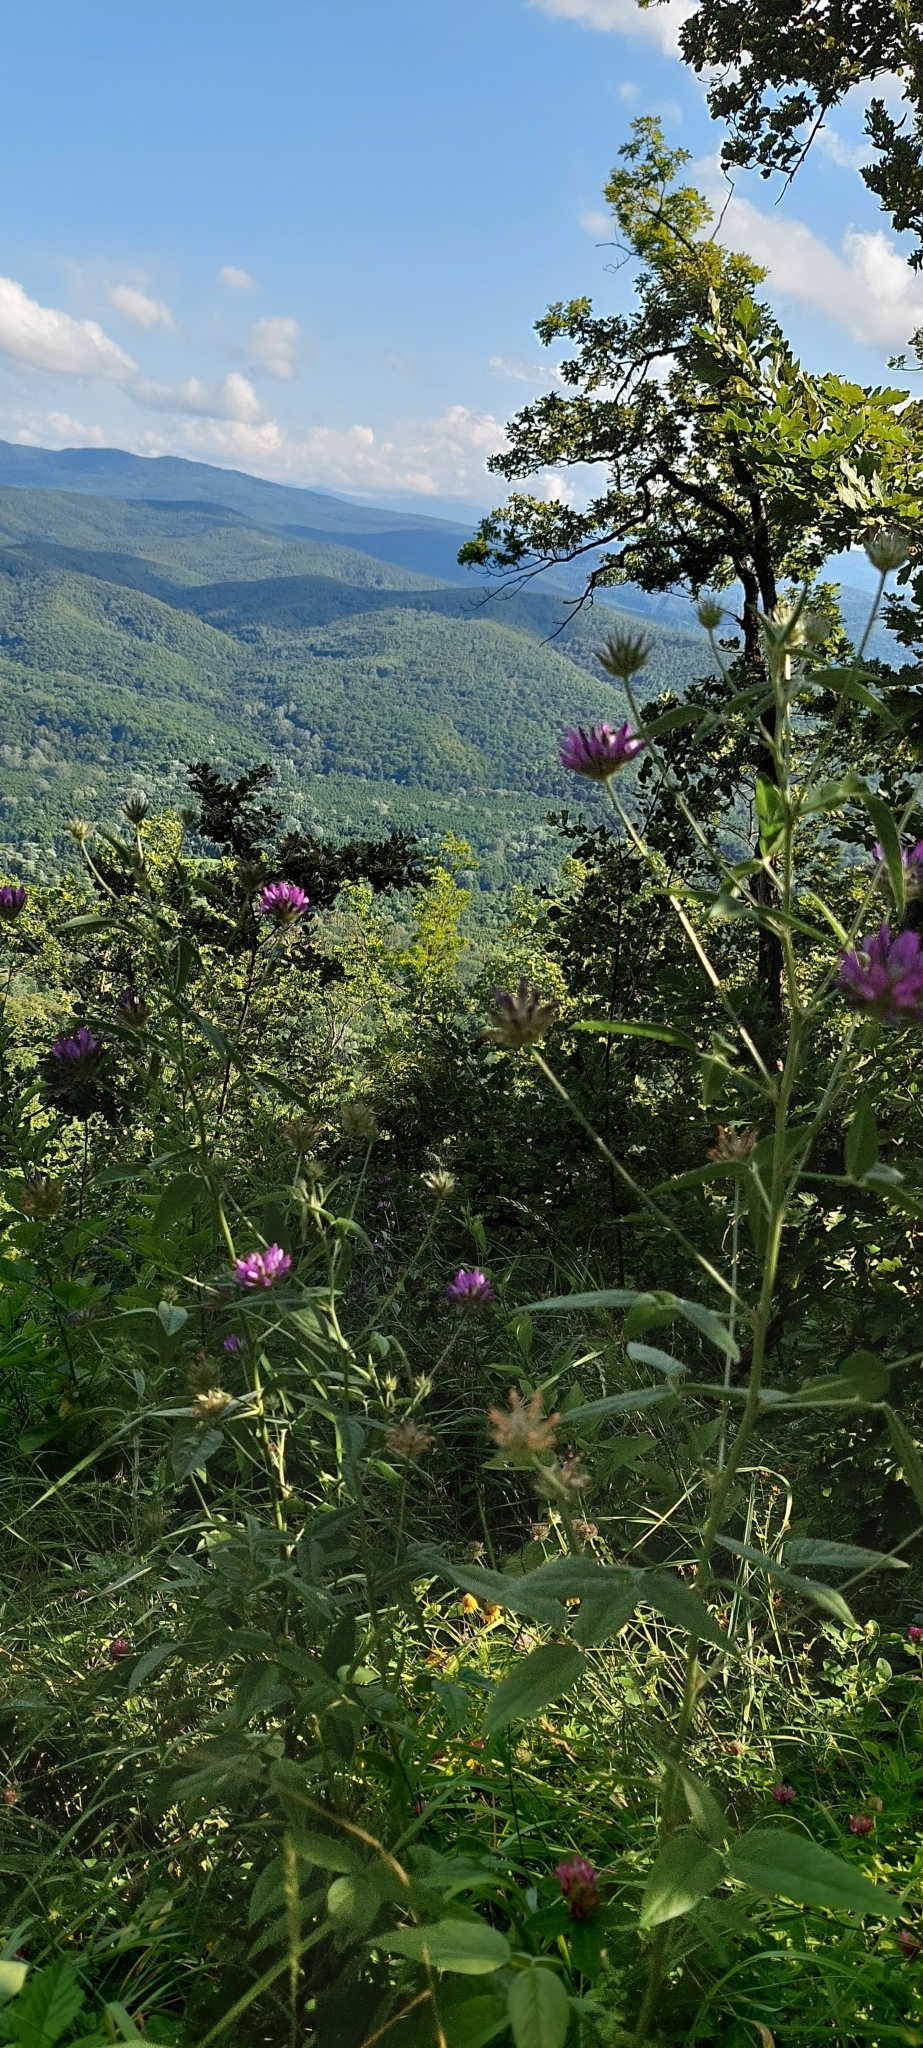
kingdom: Plantae
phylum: Tracheophyta
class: Magnoliopsida
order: Fabales
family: Fabaceae
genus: Bituminaria
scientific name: Bituminaria bituminosa
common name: Arabian pea
